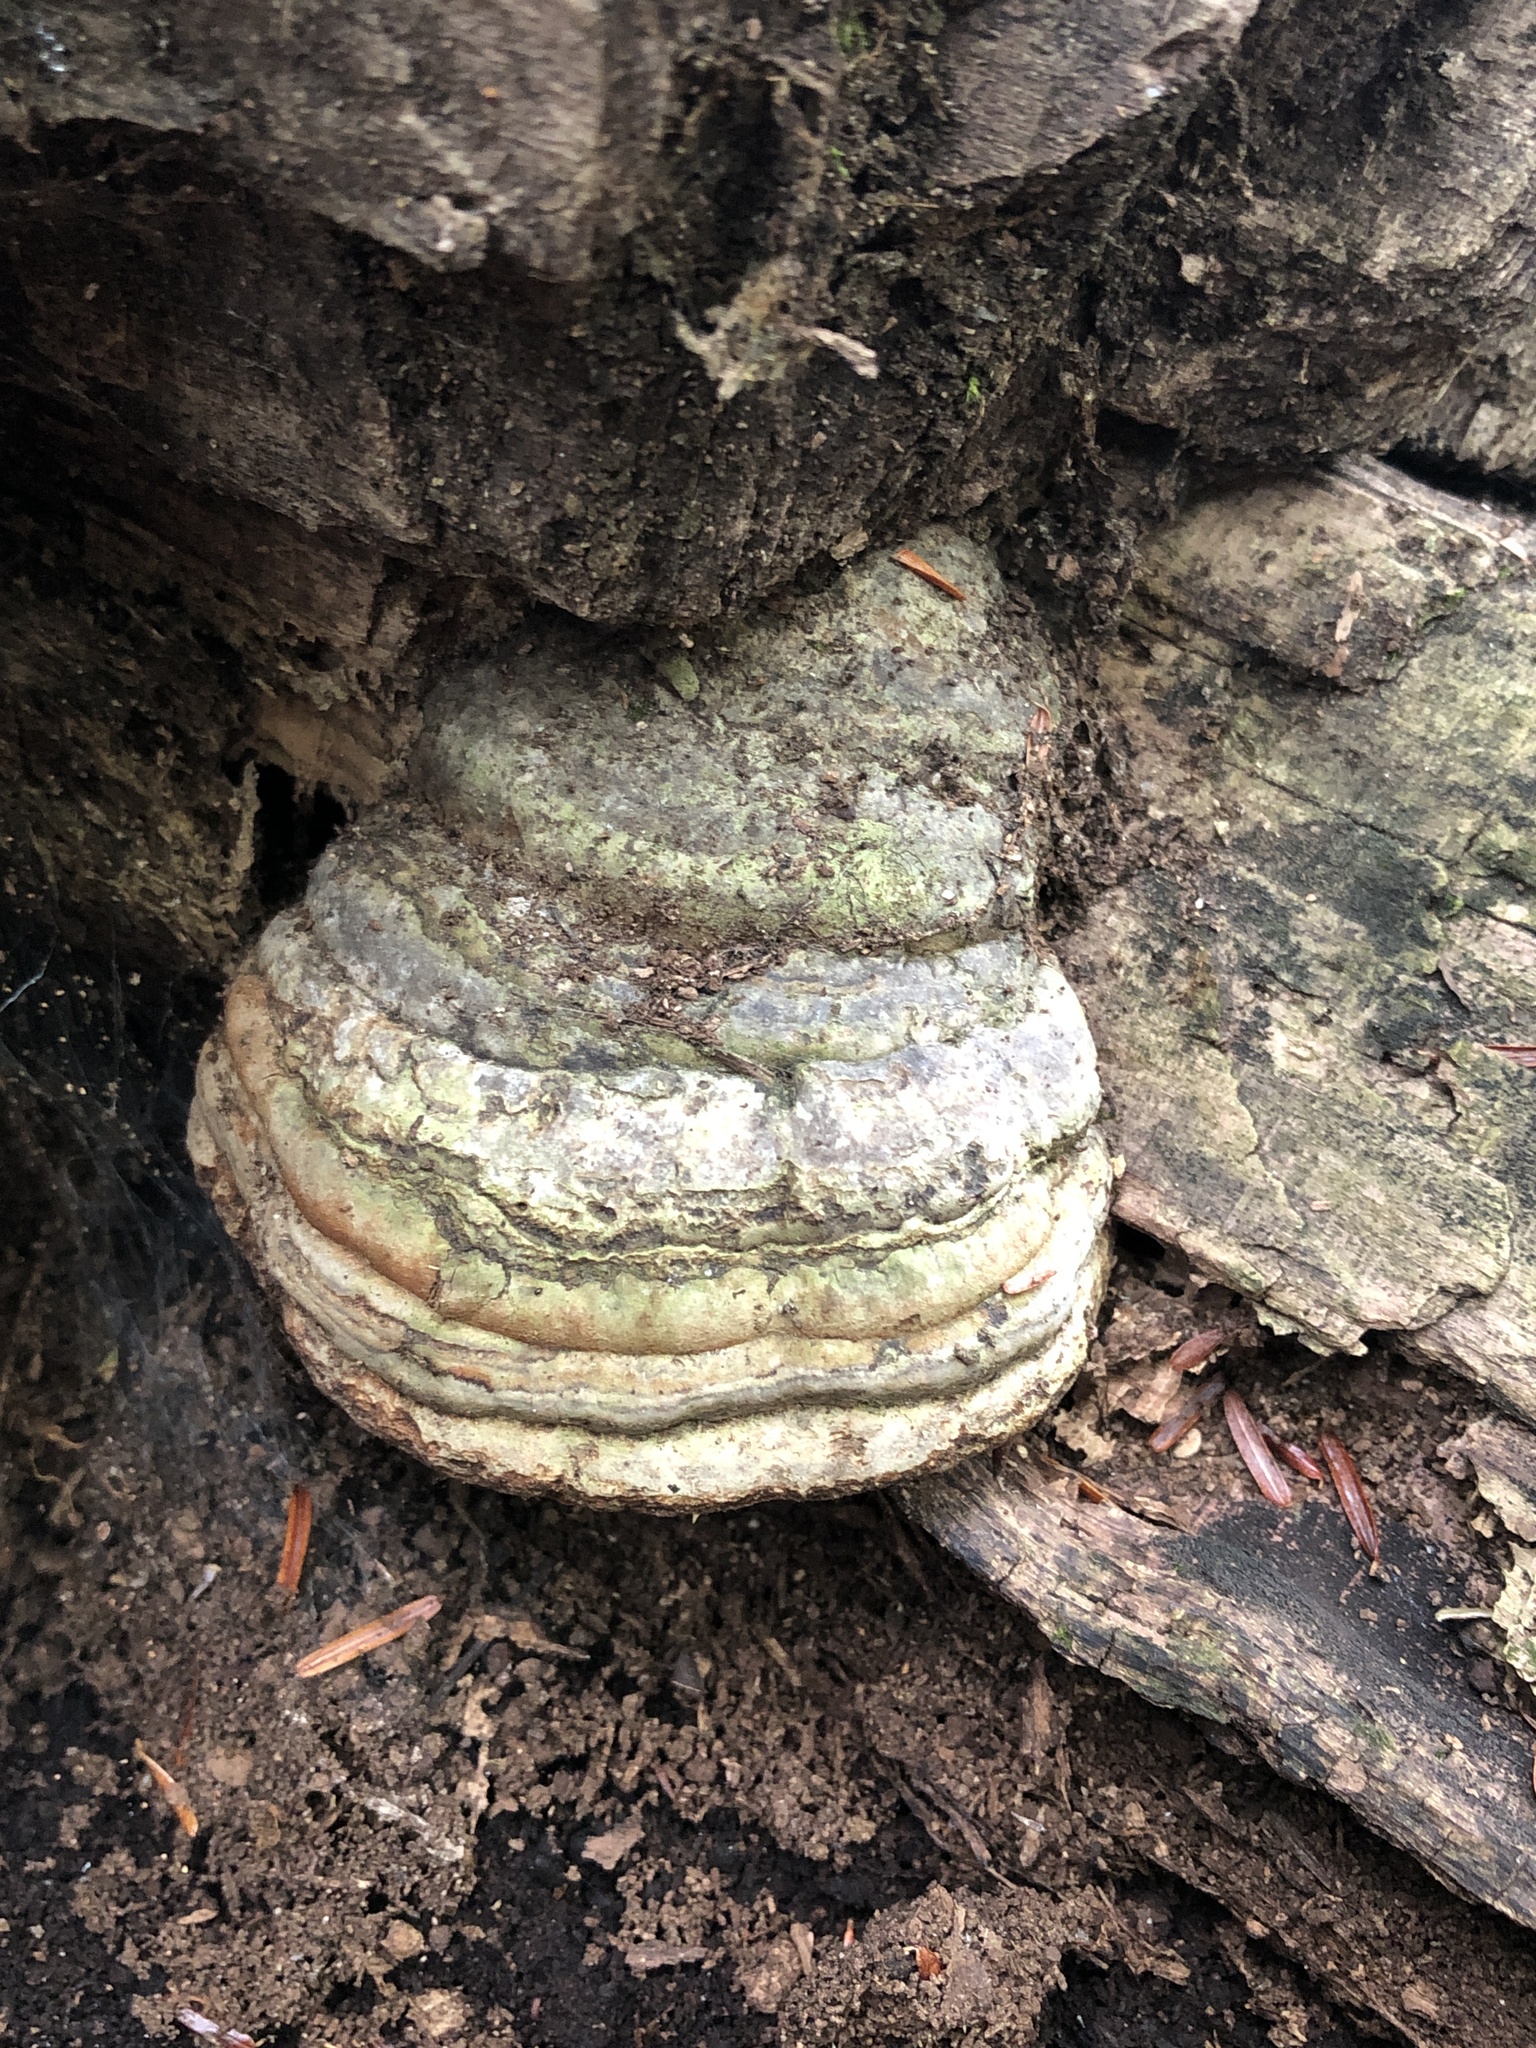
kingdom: Fungi
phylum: Basidiomycota
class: Agaricomycetes
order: Polyporales
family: Polyporaceae
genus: Fomes
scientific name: Fomes fomentarius
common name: Hoof fungus
